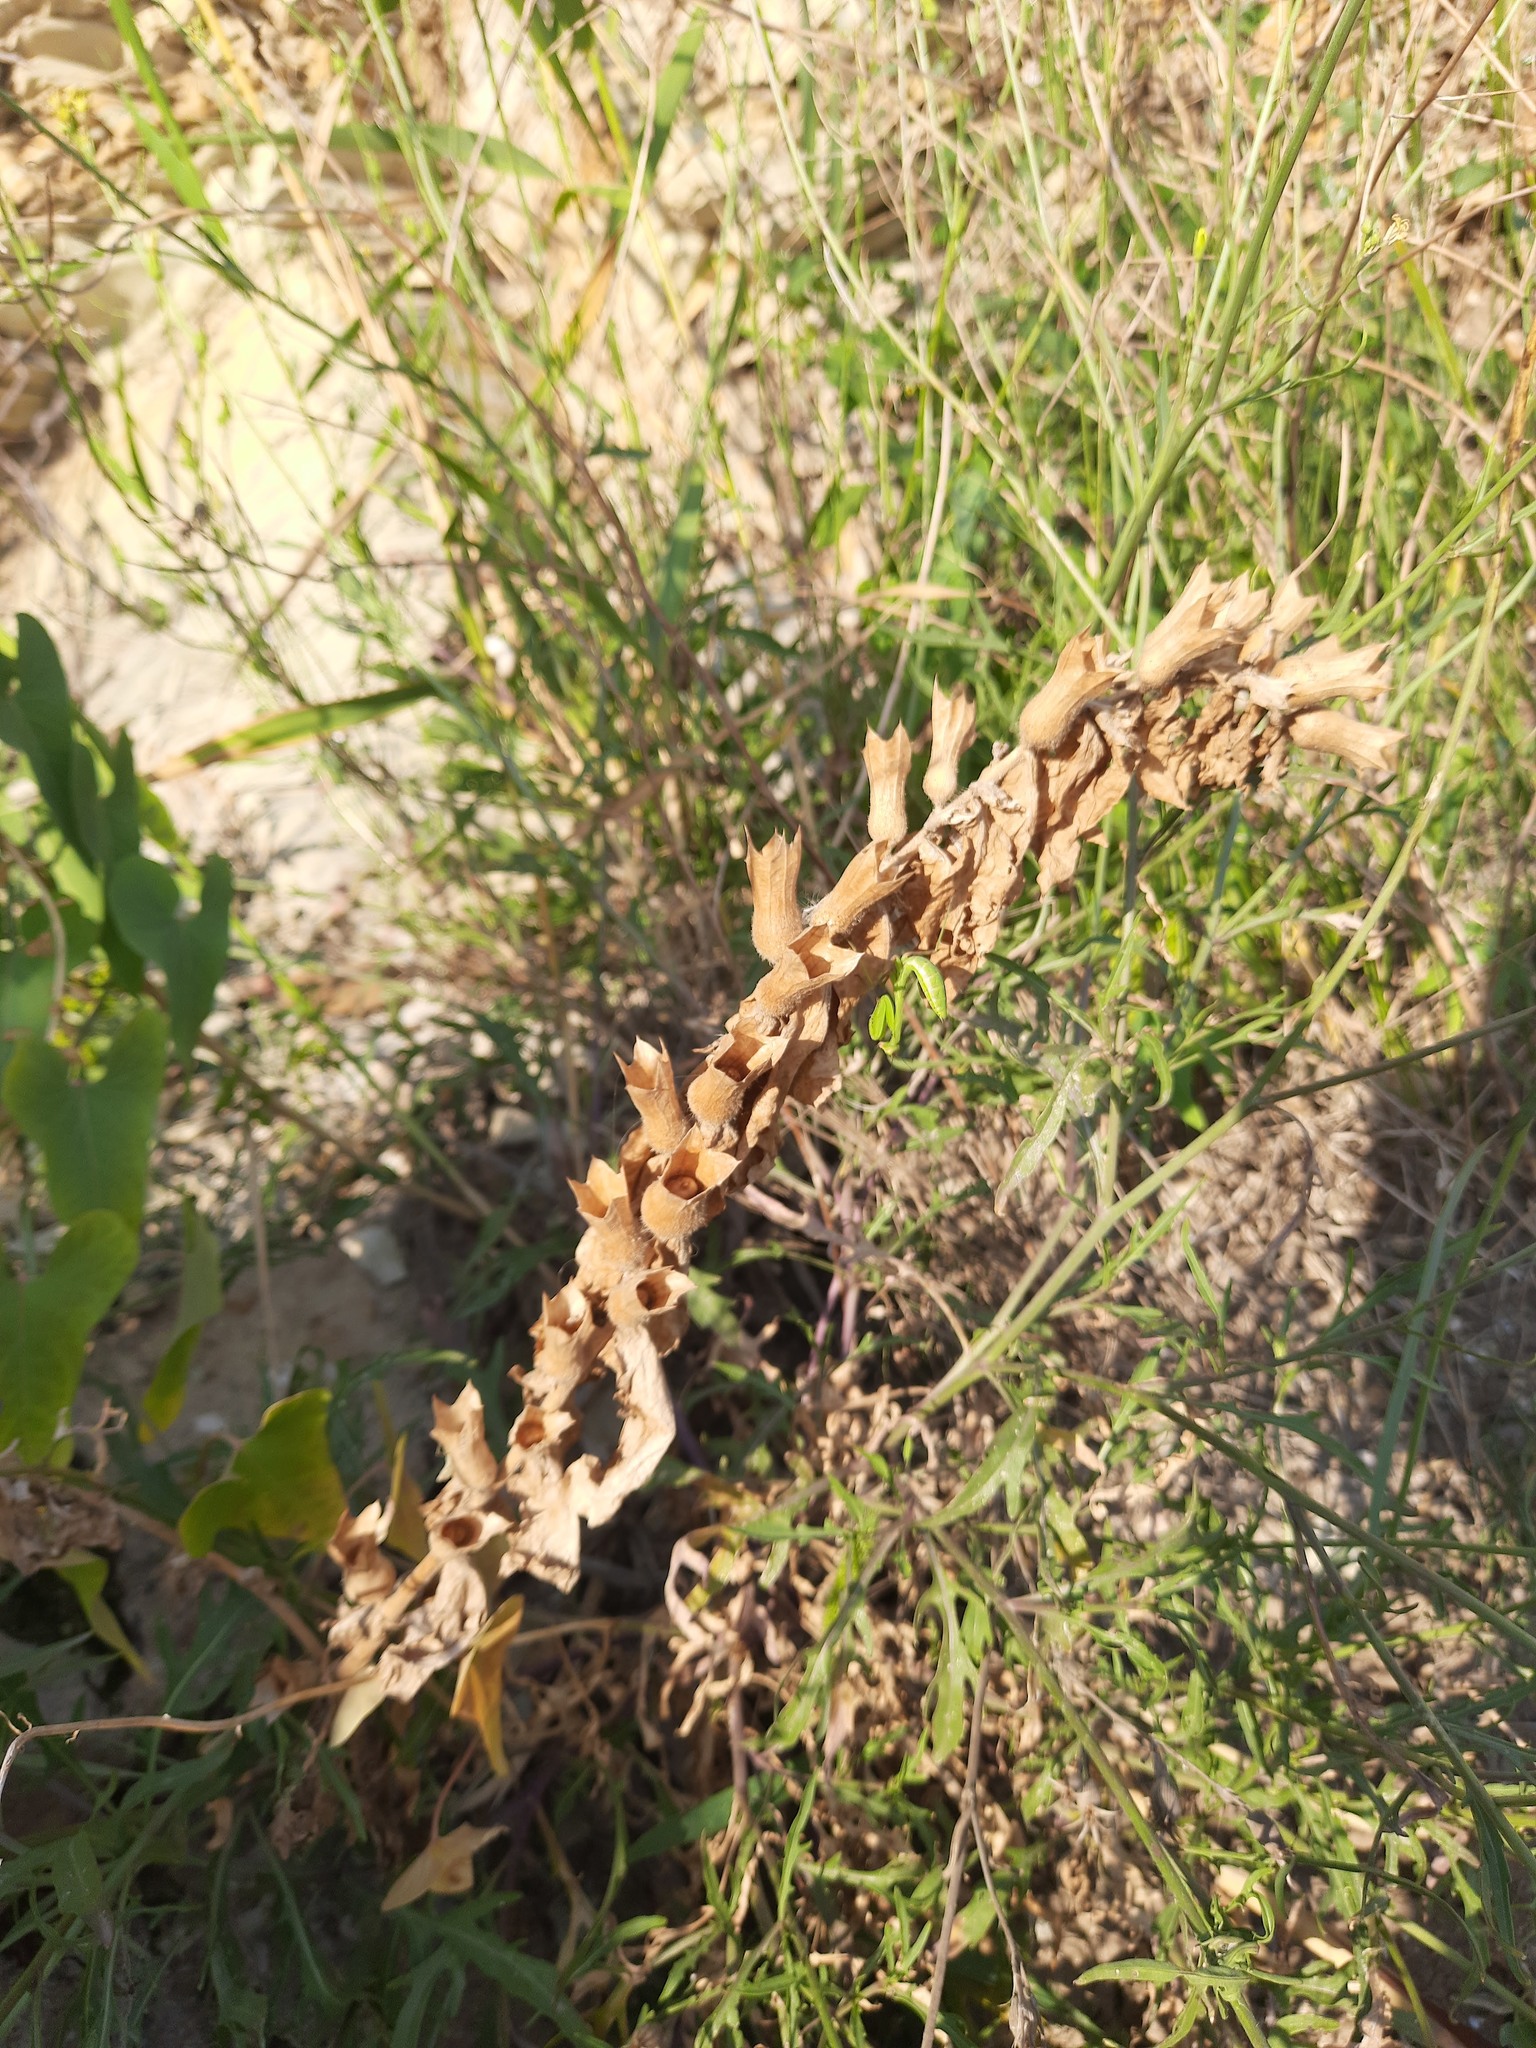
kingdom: Plantae
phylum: Tracheophyta
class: Magnoliopsida
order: Solanales
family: Solanaceae
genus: Hyoscyamus
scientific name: Hyoscyamus niger
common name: Henbane
